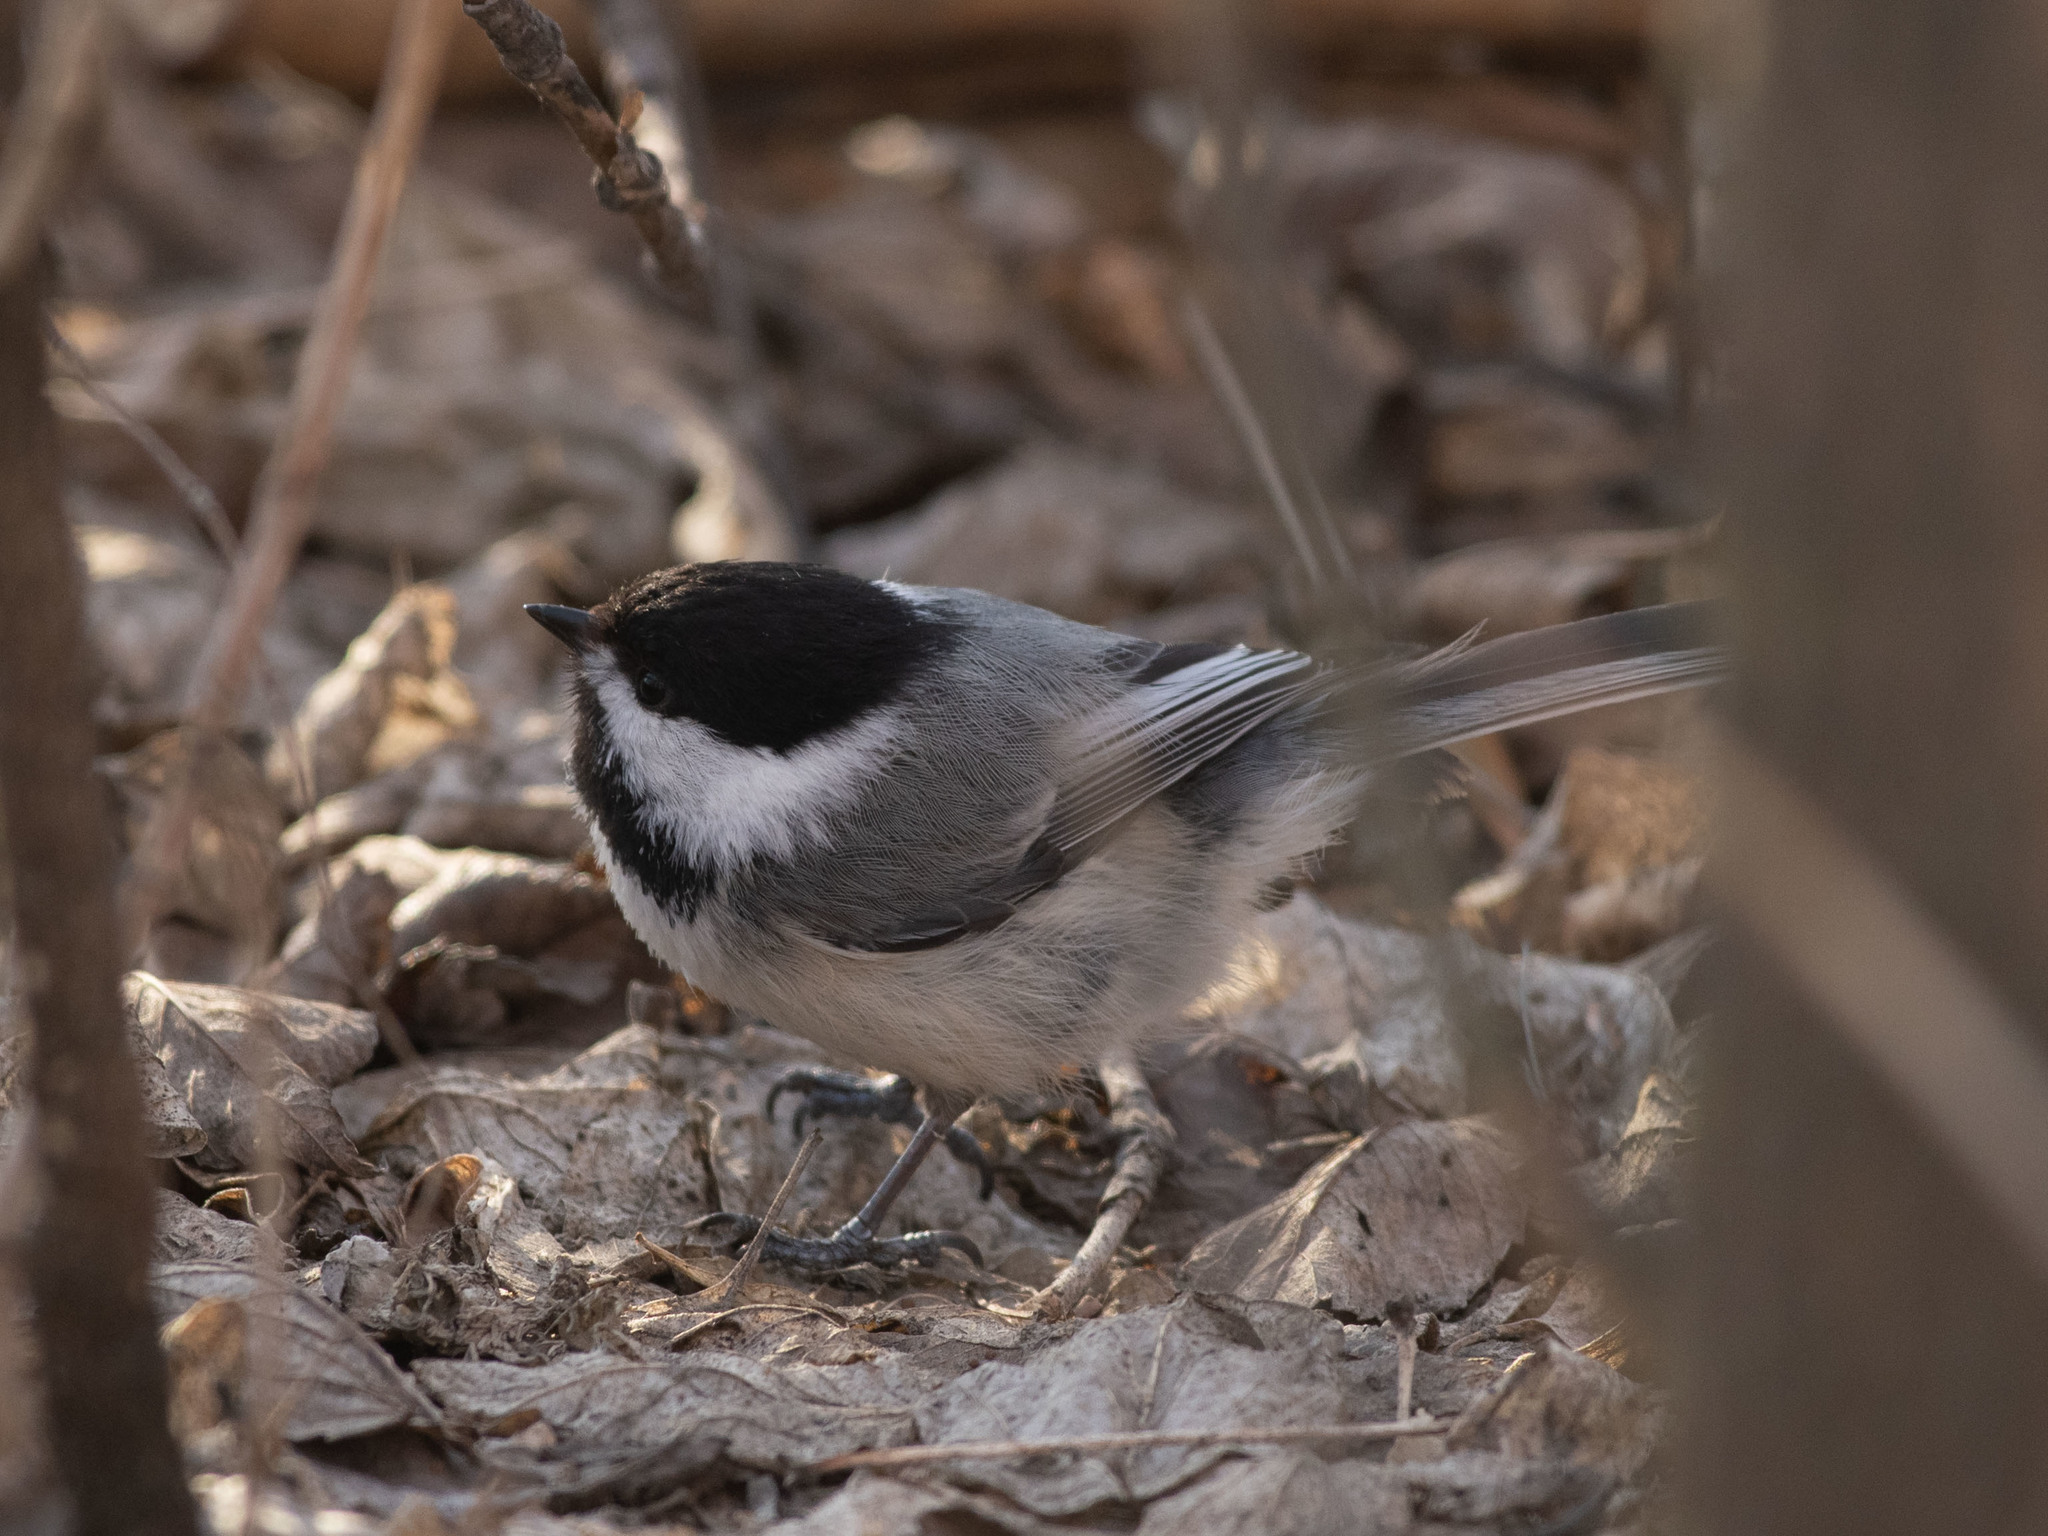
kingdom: Animalia
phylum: Chordata
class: Aves
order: Passeriformes
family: Paridae
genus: Poecile
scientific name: Poecile atricapillus
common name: Black-capped chickadee
